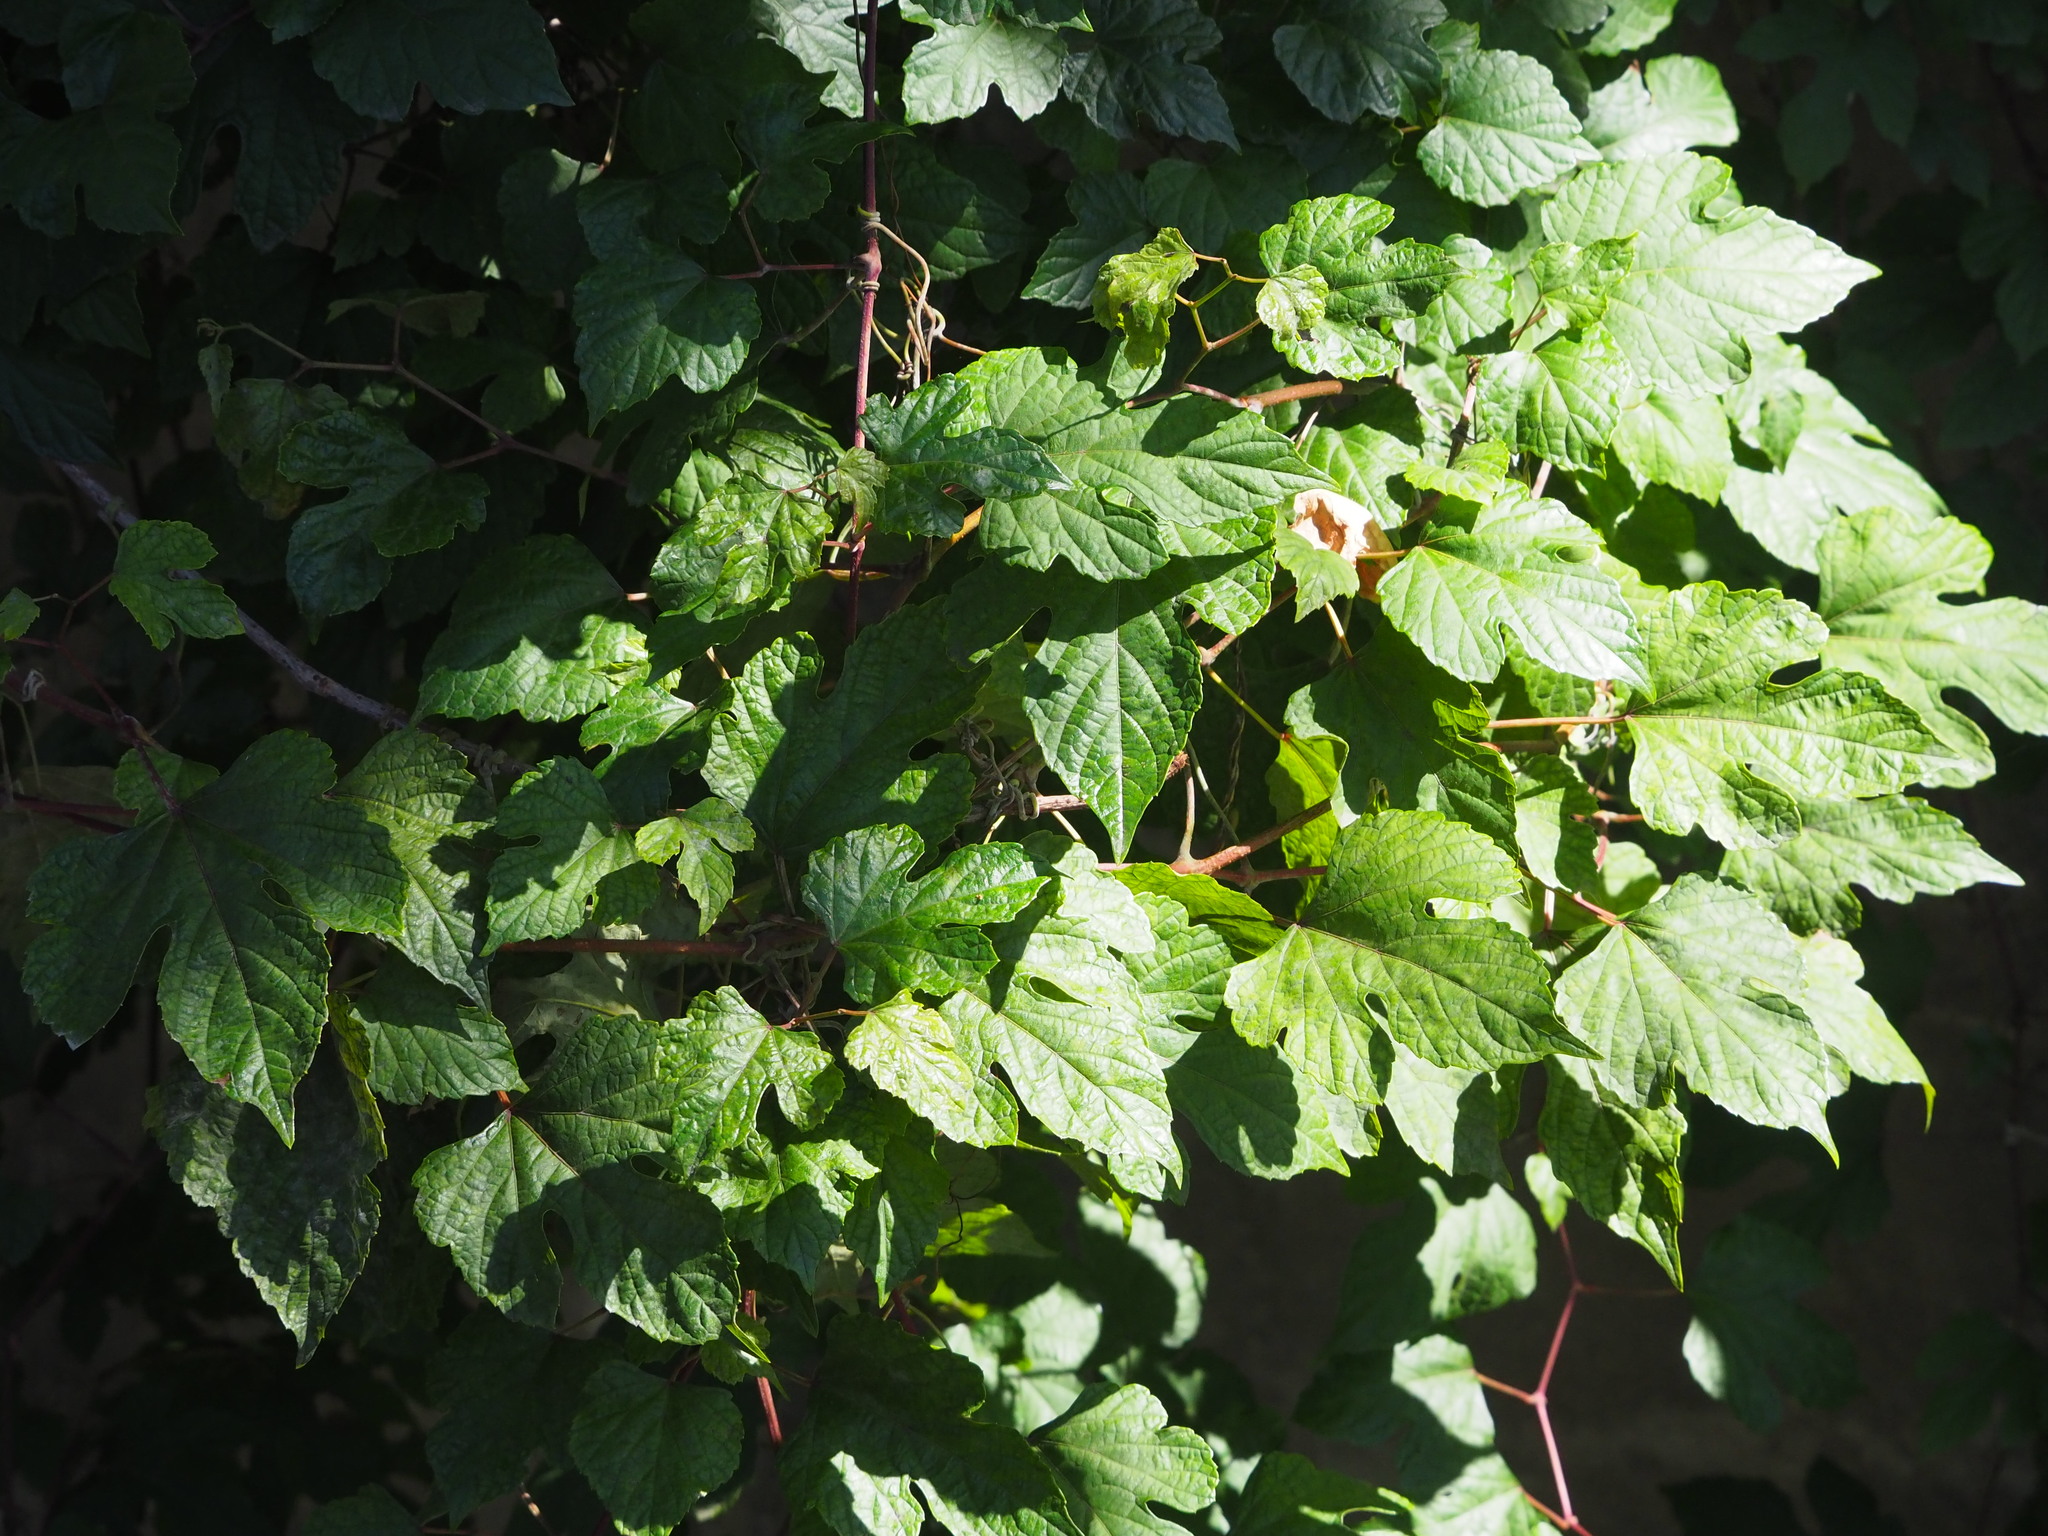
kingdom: Plantae
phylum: Tracheophyta
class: Magnoliopsida
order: Vitales
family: Vitaceae
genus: Ampelopsis
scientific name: Ampelopsis glandulosa
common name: Amur peppervine
